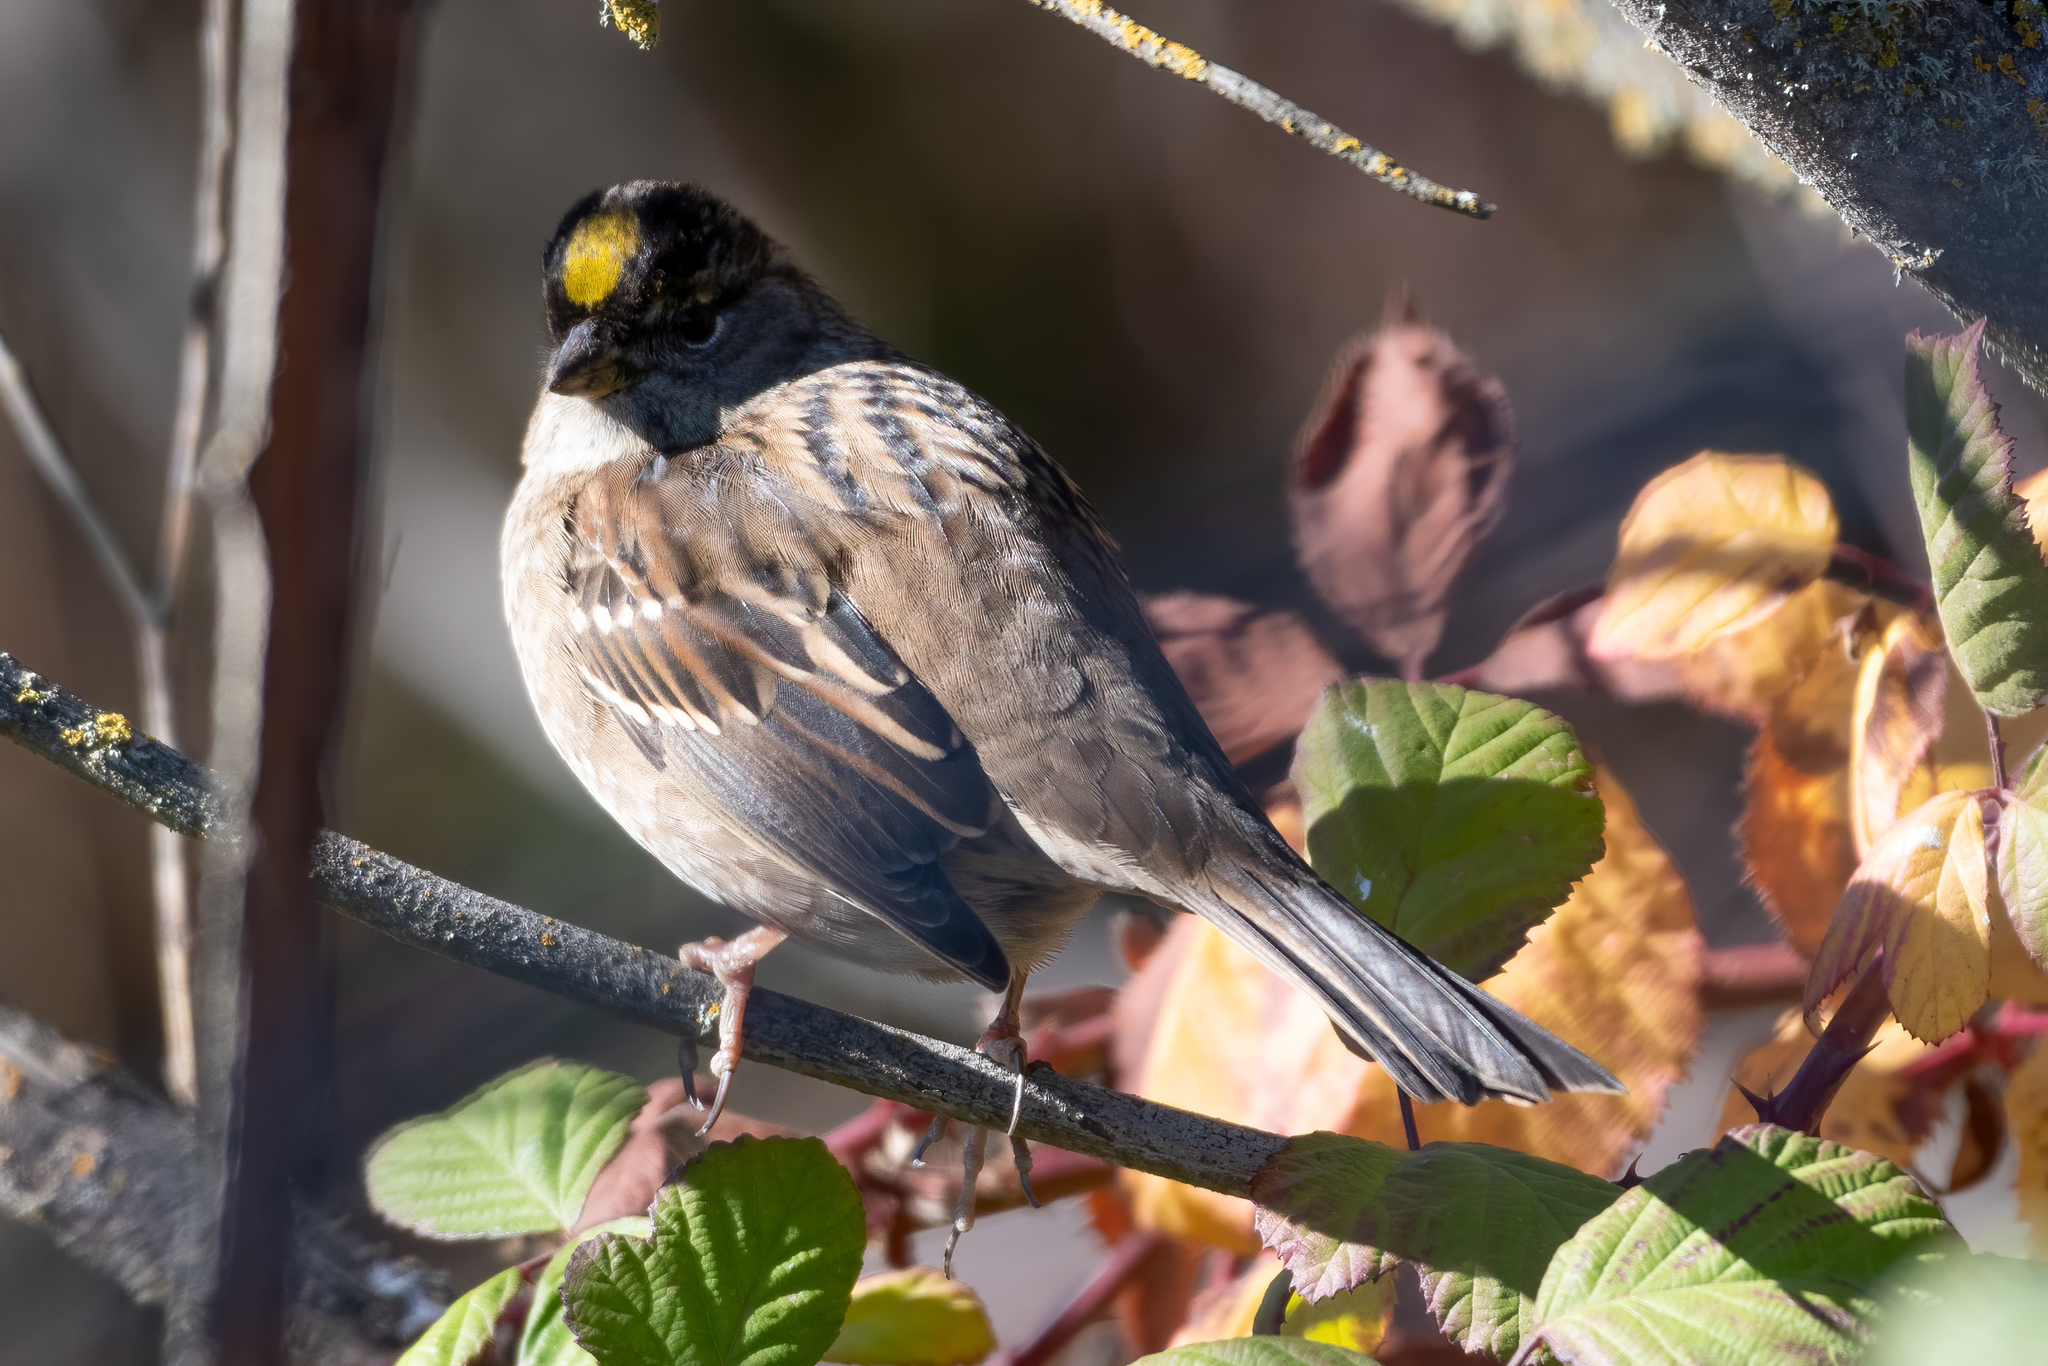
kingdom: Animalia
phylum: Chordata
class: Aves
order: Passeriformes
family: Passerellidae
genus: Zonotrichia
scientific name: Zonotrichia atricapilla
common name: Golden-crowned sparrow
